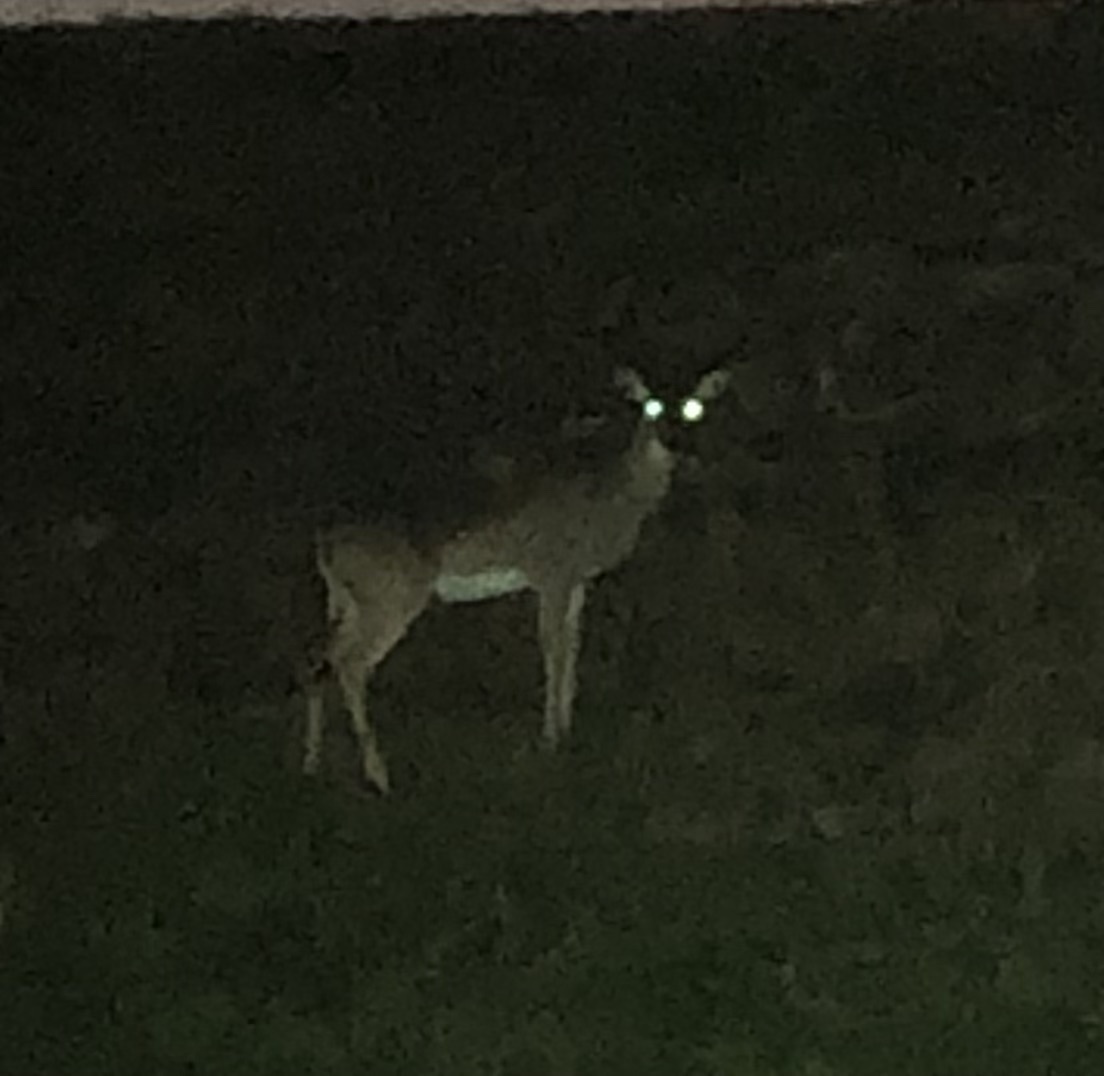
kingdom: Animalia
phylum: Chordata
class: Mammalia
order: Artiodactyla
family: Cervidae
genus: Odocoileus
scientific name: Odocoileus virginianus
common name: White-tailed deer
